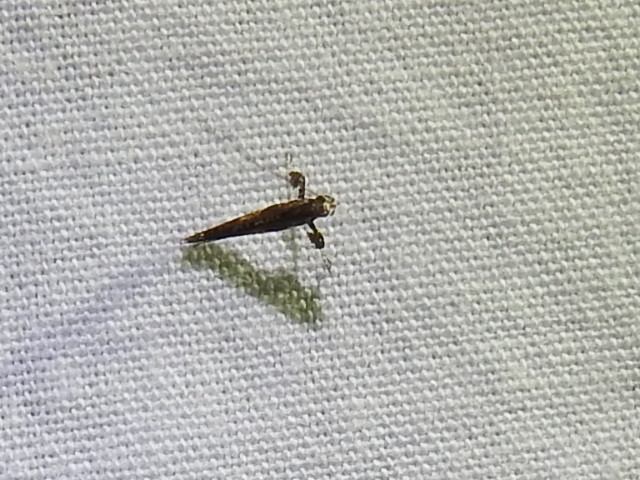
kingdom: Animalia
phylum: Arthropoda
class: Insecta
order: Lepidoptera
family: Gracillariidae
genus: Caloptilia
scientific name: Caloptilia
